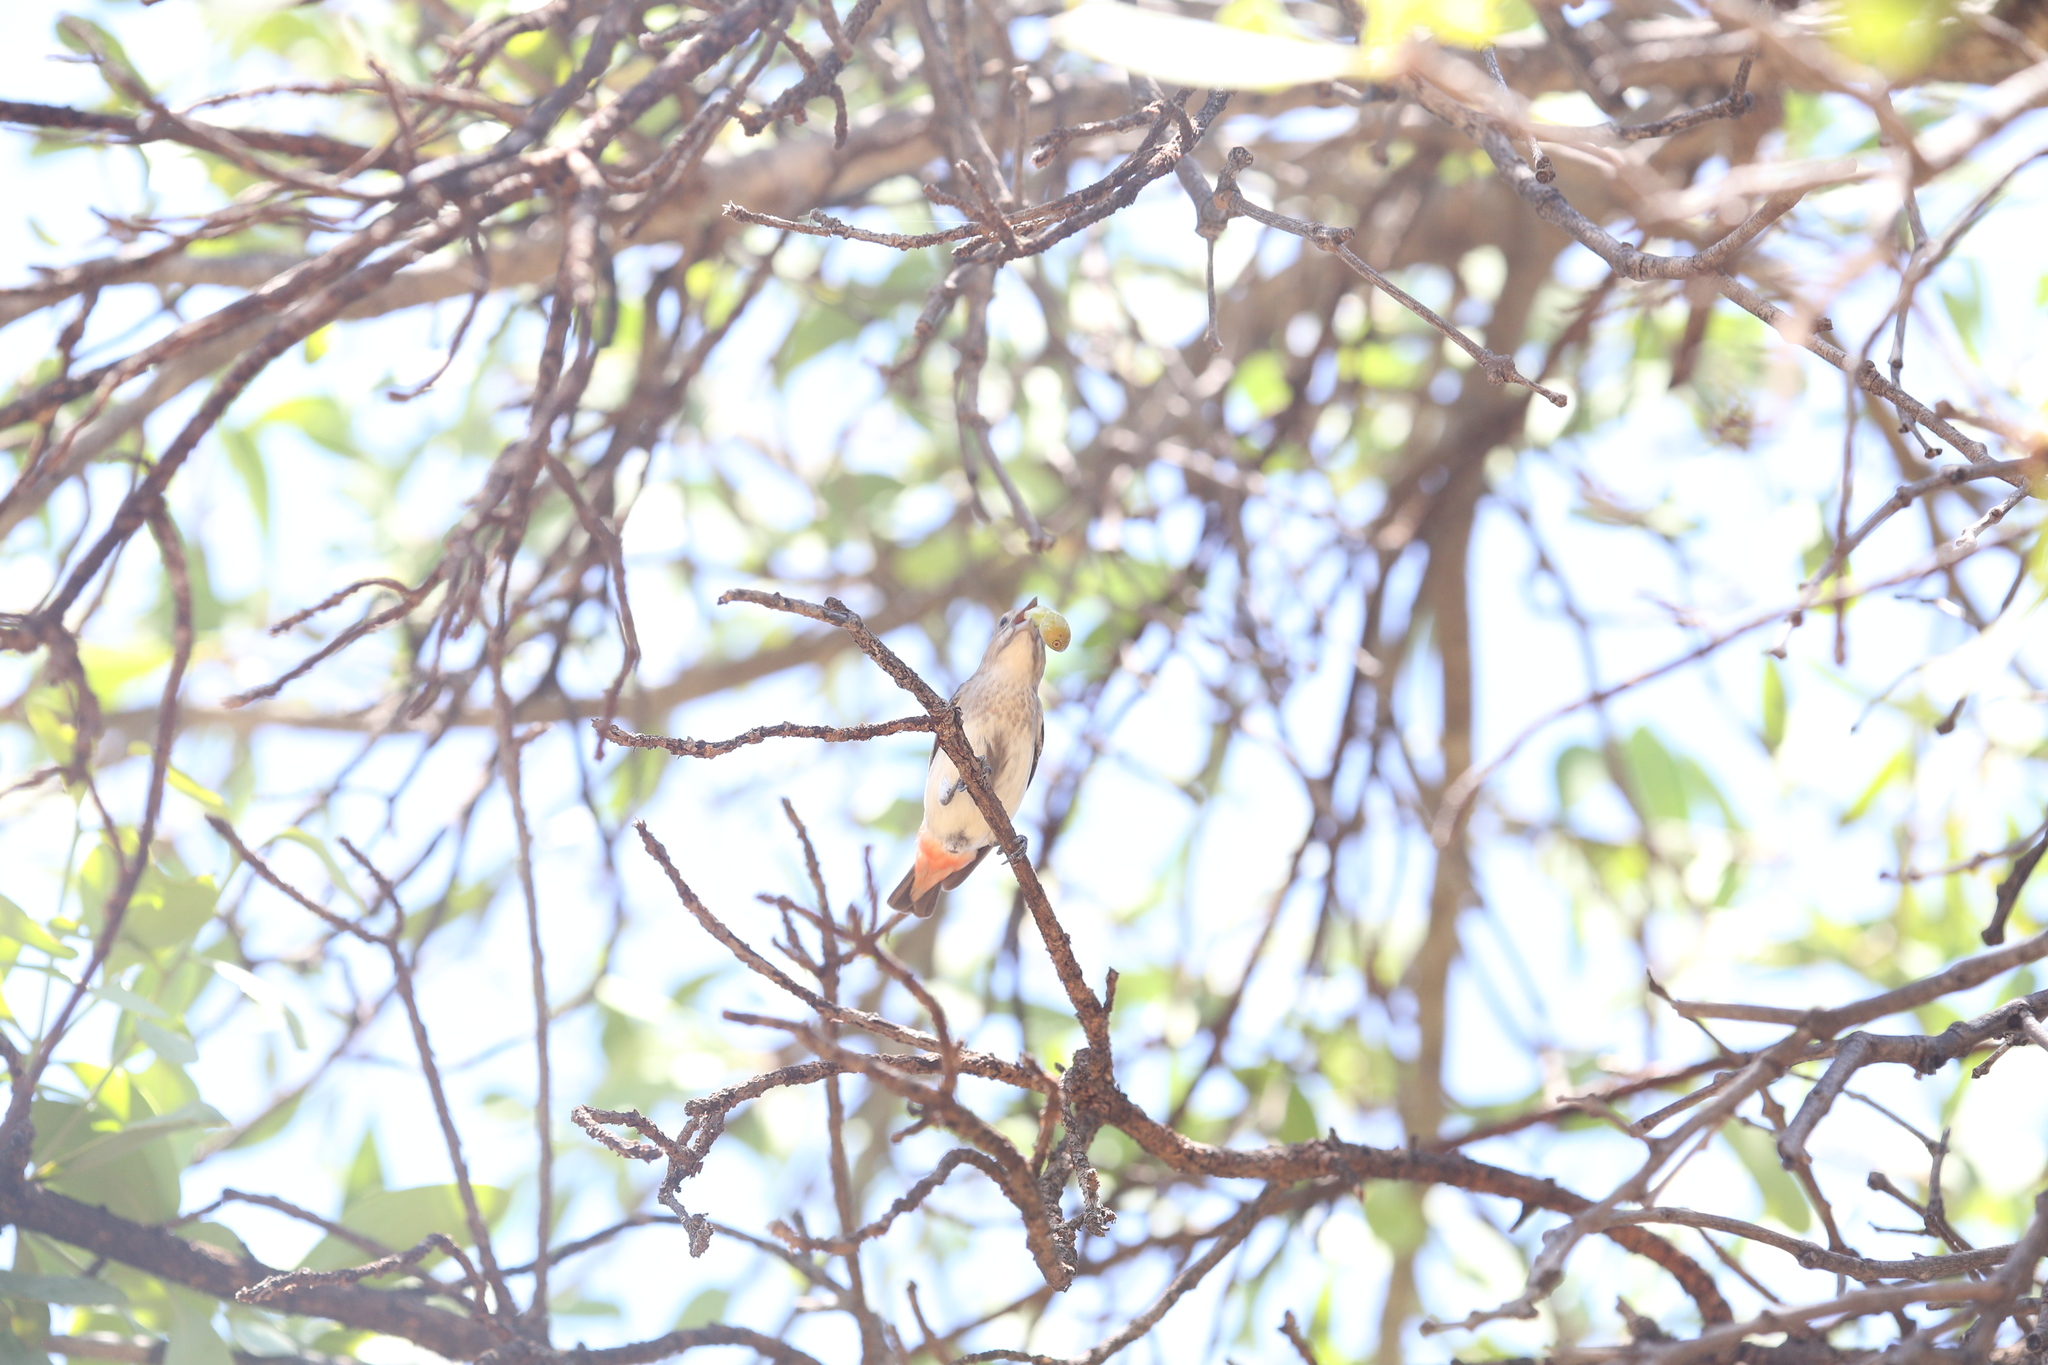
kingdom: Animalia
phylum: Chordata
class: Aves
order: Passeriformes
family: Dicaeidae
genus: Dicaeum
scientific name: Dicaeum hirundinaceum
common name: Mistletoebird
